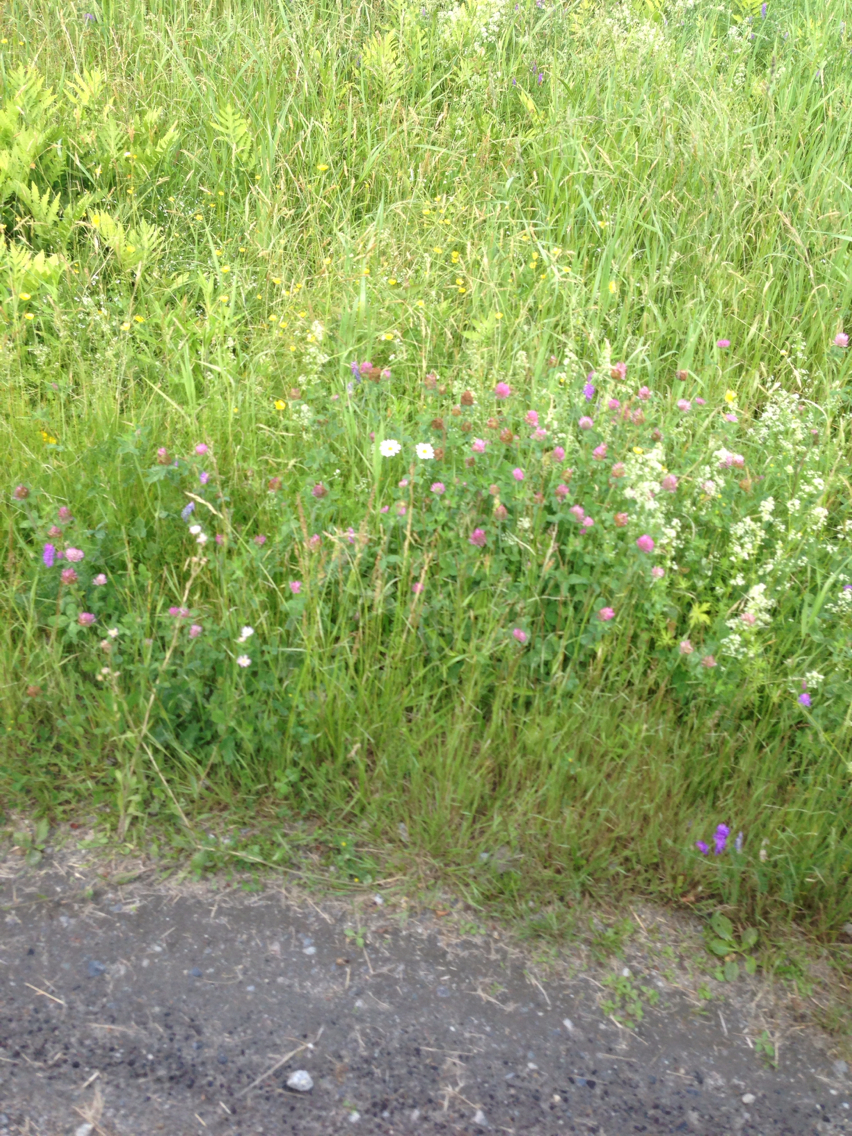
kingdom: Plantae
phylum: Tracheophyta
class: Magnoliopsida
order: Fabales
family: Fabaceae
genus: Trifolium
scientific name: Trifolium pratense
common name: Red clover
